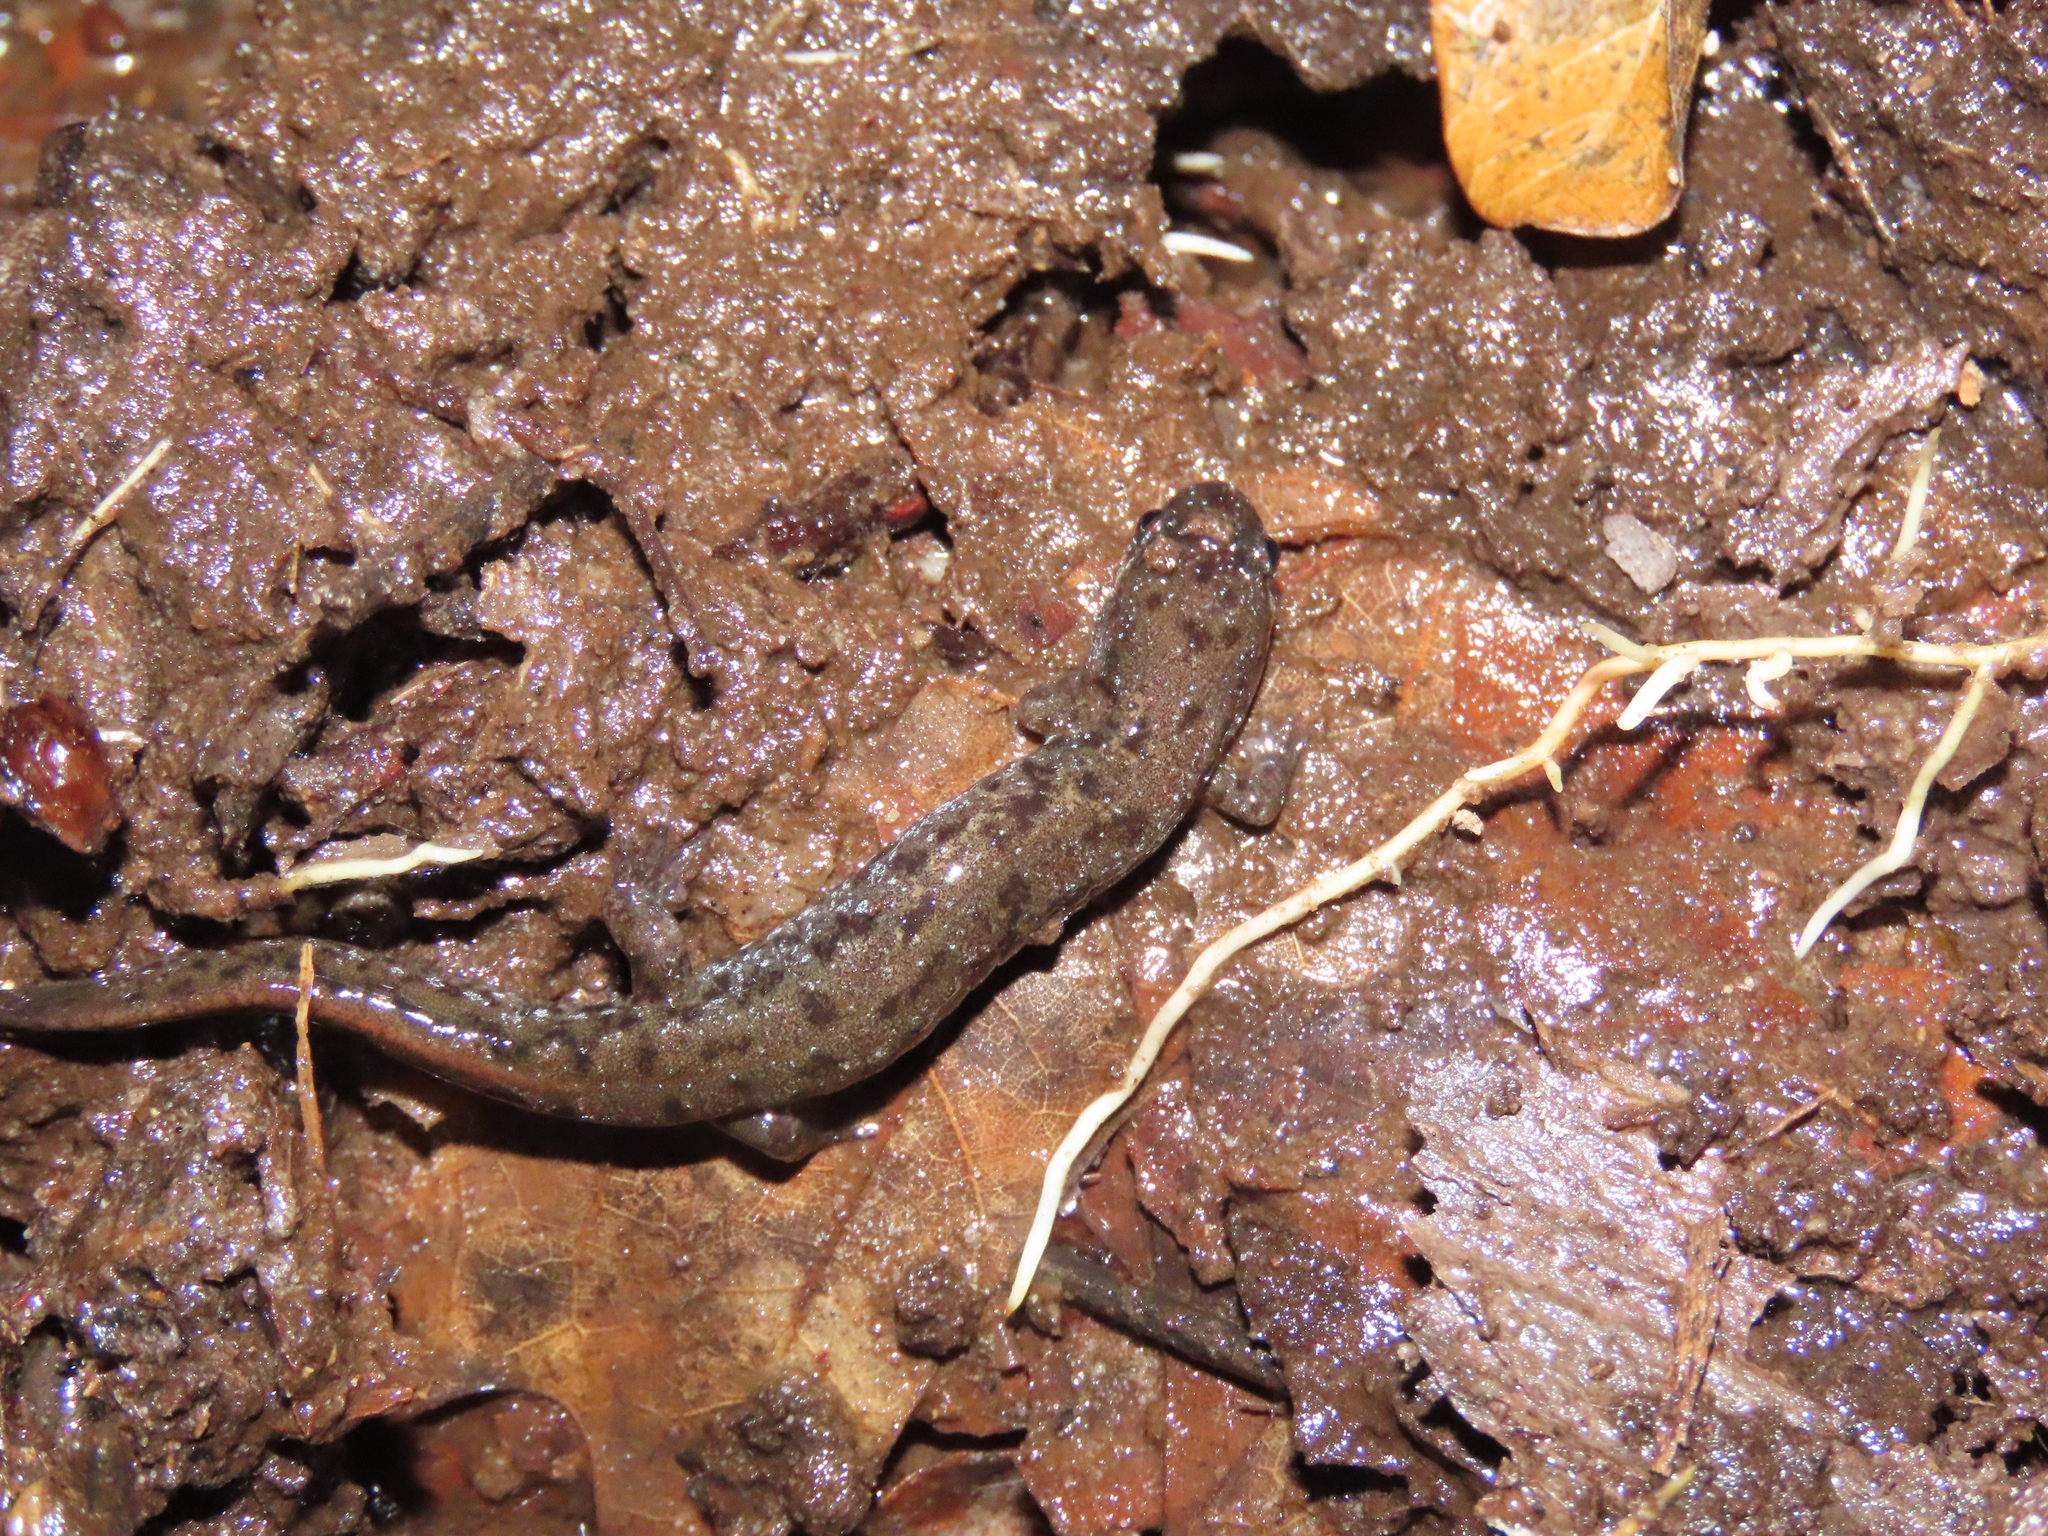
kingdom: Animalia
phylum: Chordata
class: Amphibia
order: Caudata
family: Plethodontidae
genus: Desmognathus
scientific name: Desmognathus fuscus
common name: Northern dusky salamander
